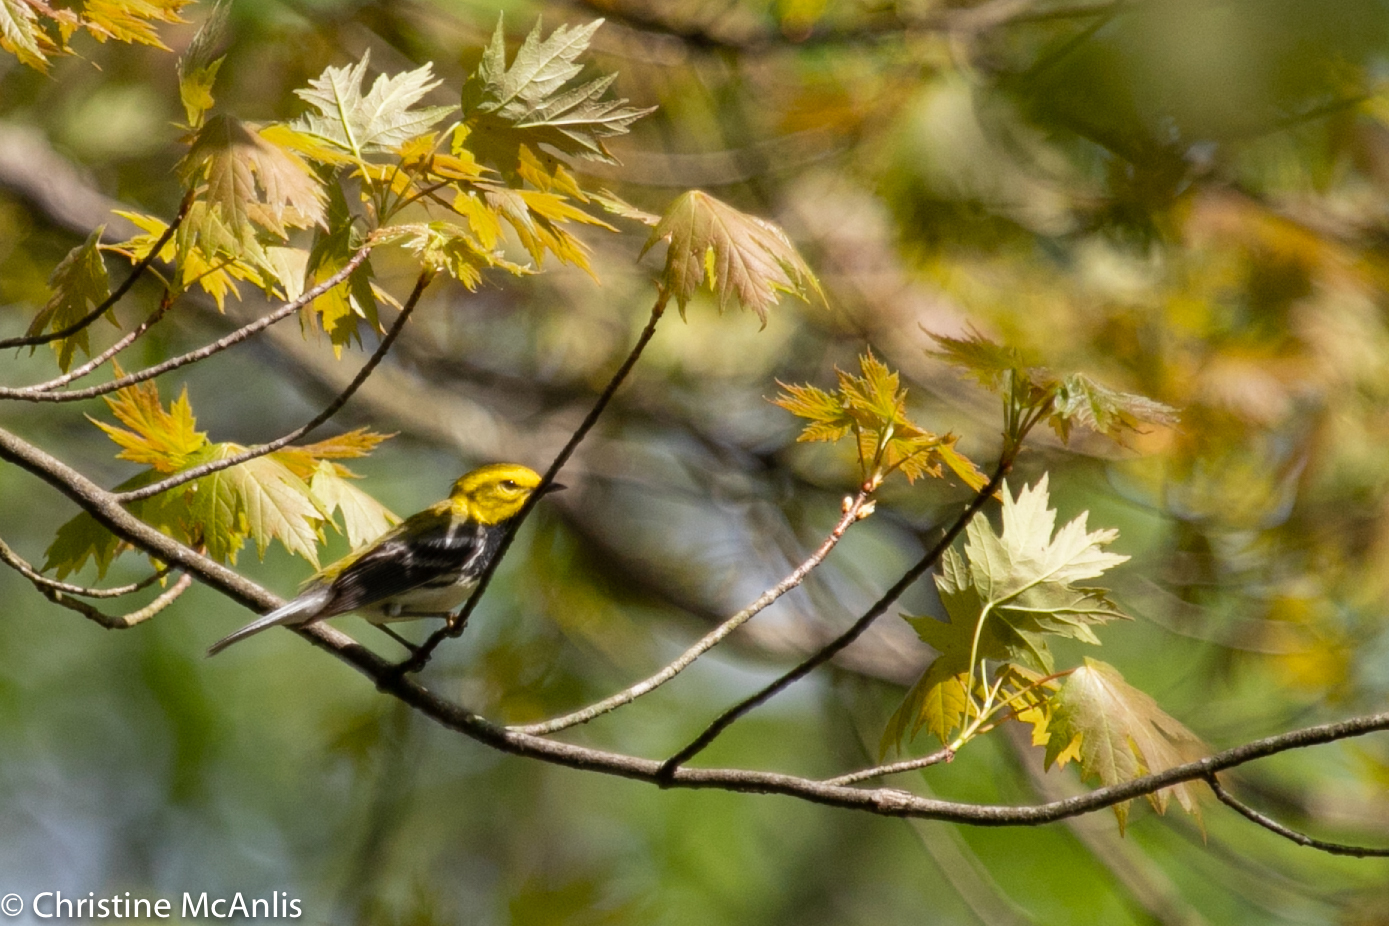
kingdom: Animalia
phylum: Chordata
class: Aves
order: Passeriformes
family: Parulidae
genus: Setophaga
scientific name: Setophaga virens
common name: Black-throated green warbler
